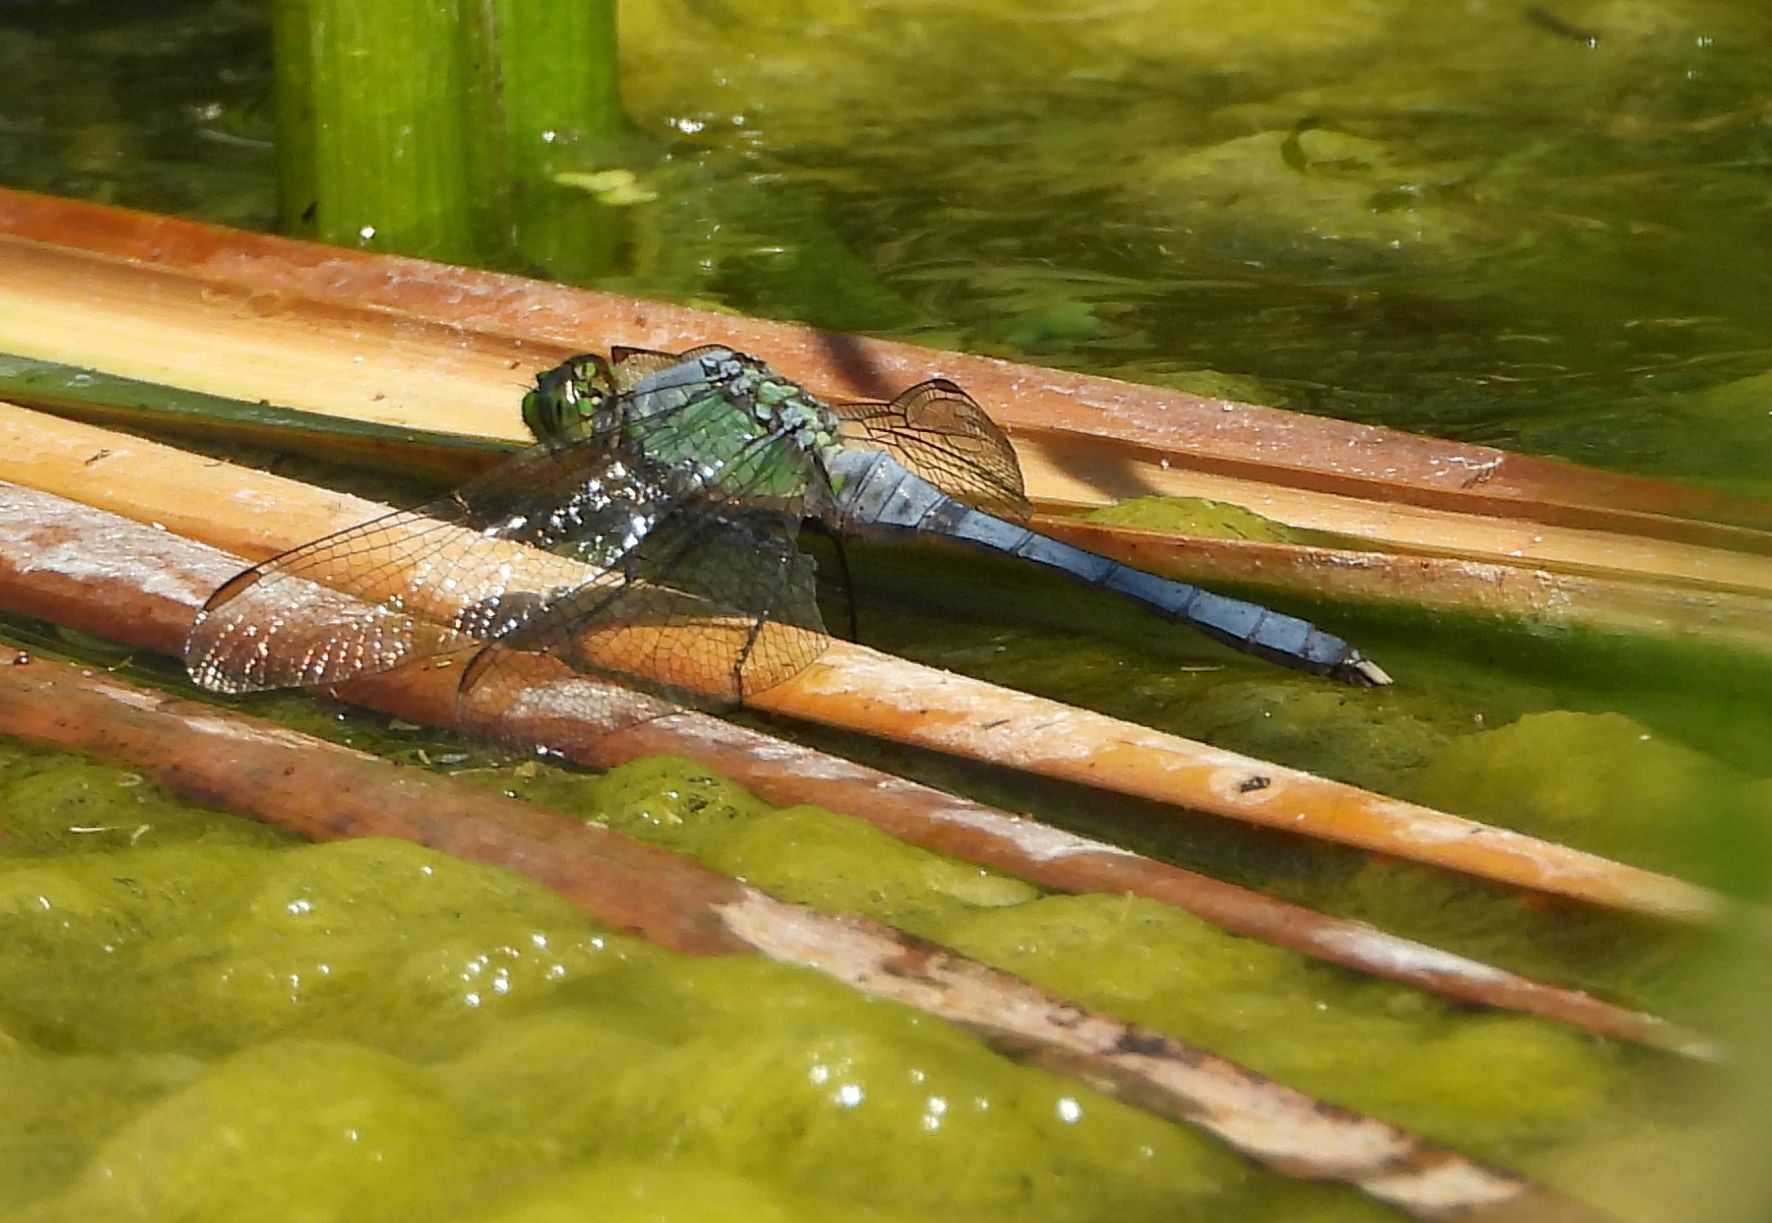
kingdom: Animalia
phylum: Arthropoda
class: Insecta
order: Odonata
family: Libellulidae
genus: Erythemis
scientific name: Erythemis simplicicollis
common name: Eastern pondhawk
